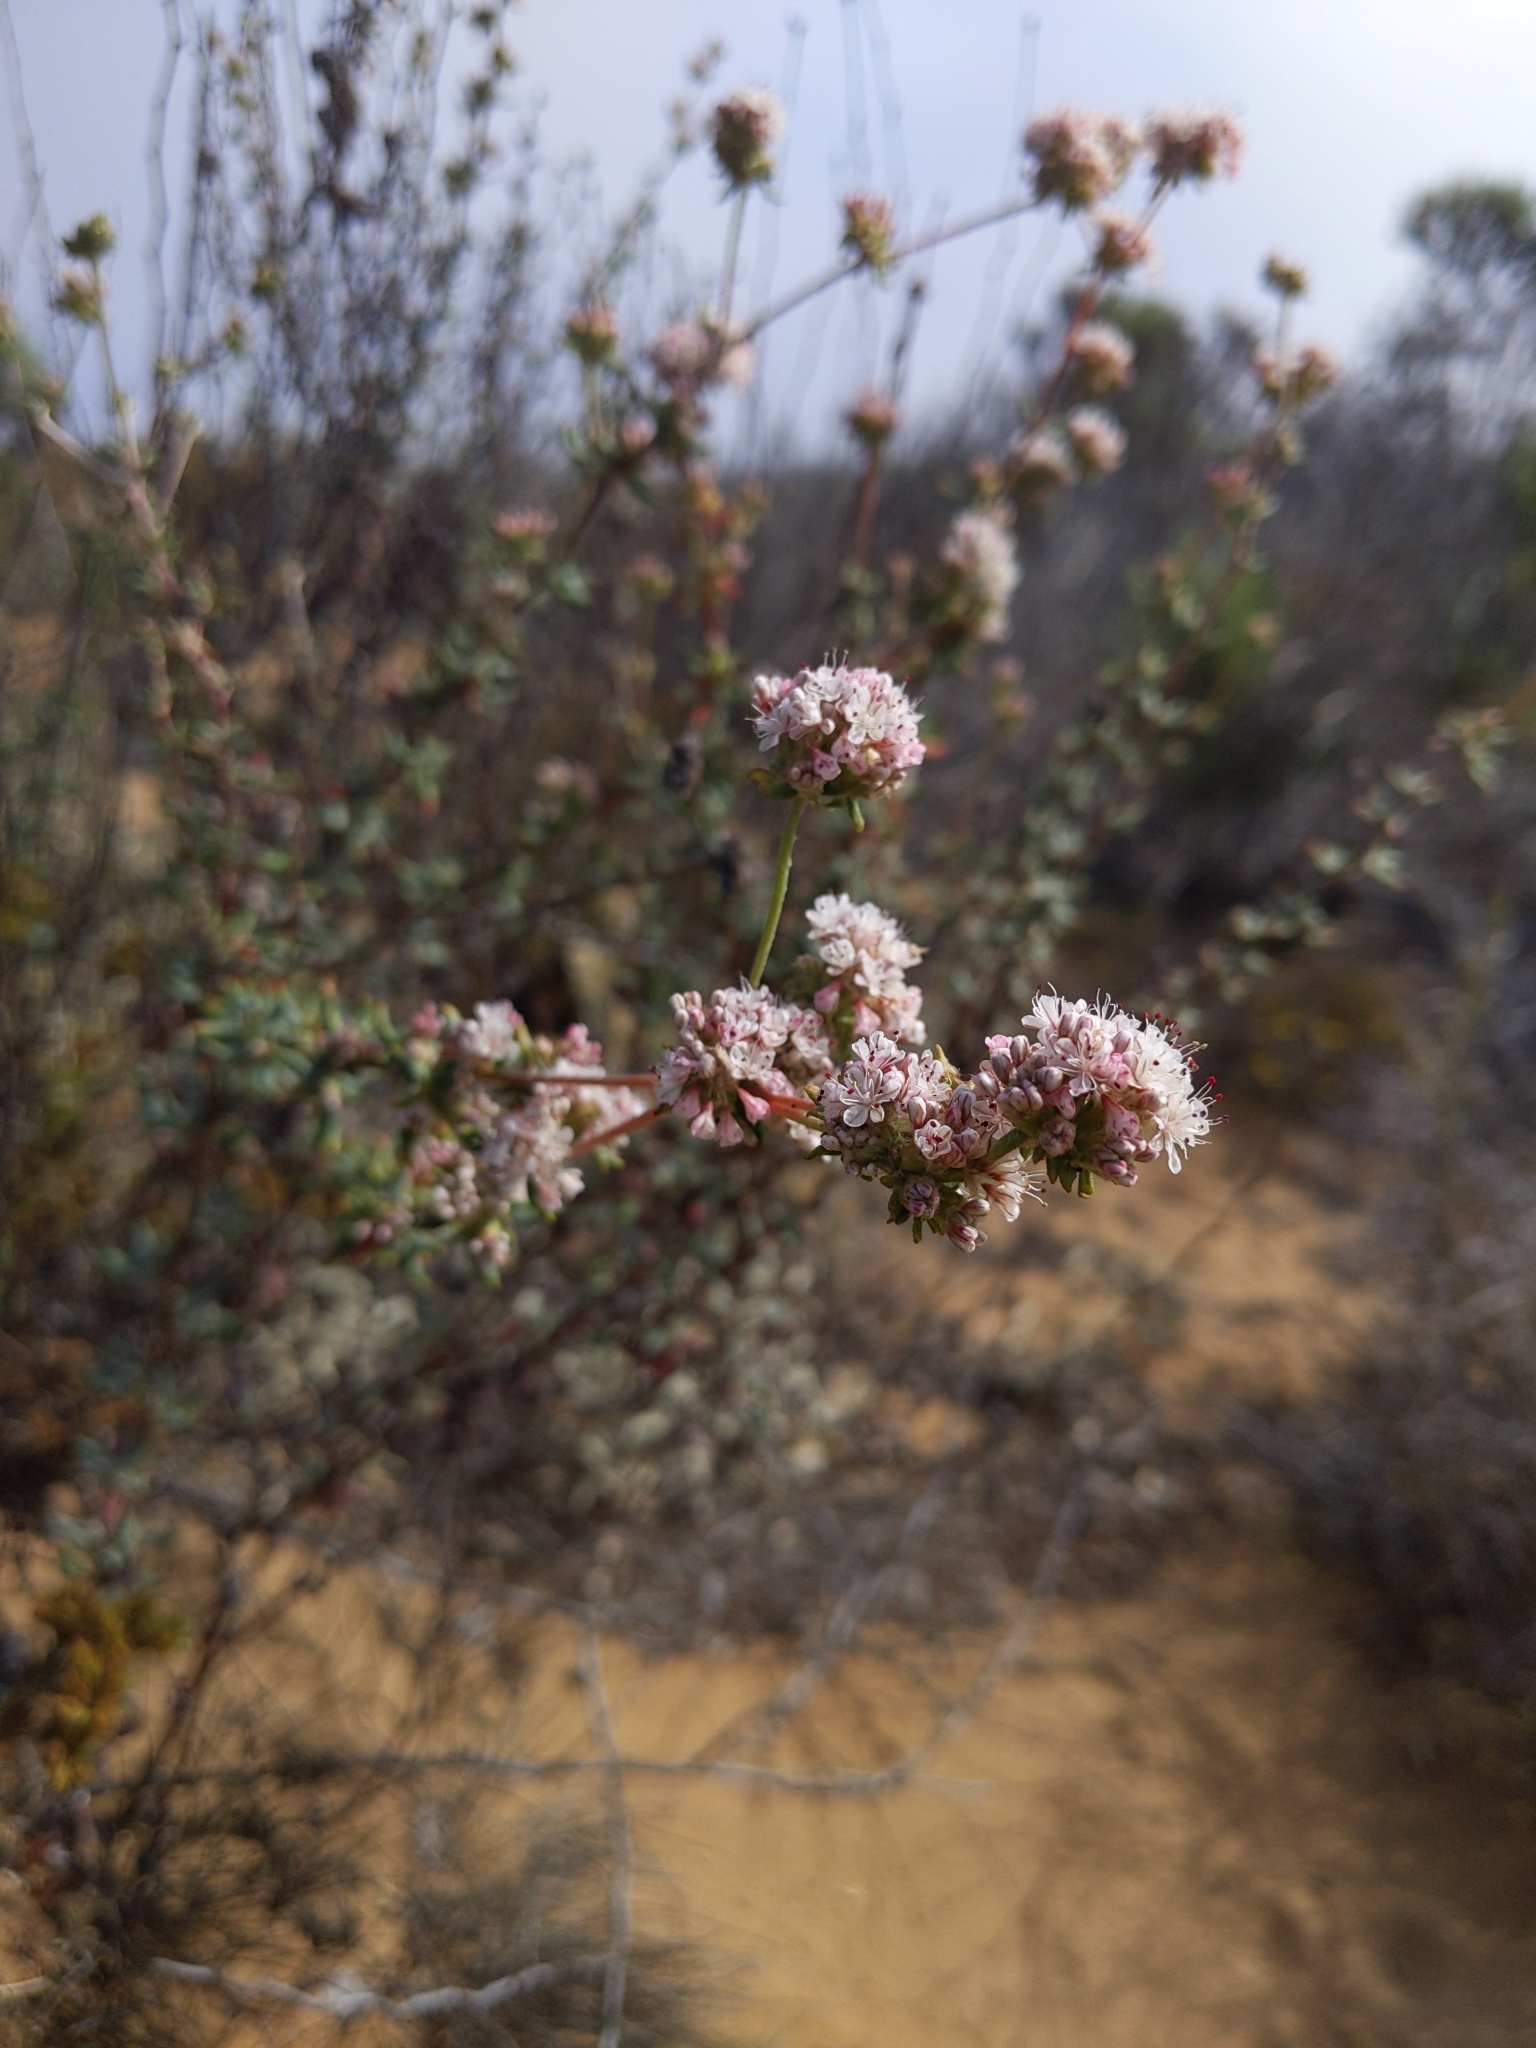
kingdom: Plantae
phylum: Tracheophyta
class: Magnoliopsida
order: Caryophyllales
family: Polygonaceae
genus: Eriogonum
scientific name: Eriogonum fasciculatum
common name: California wild buckwheat
